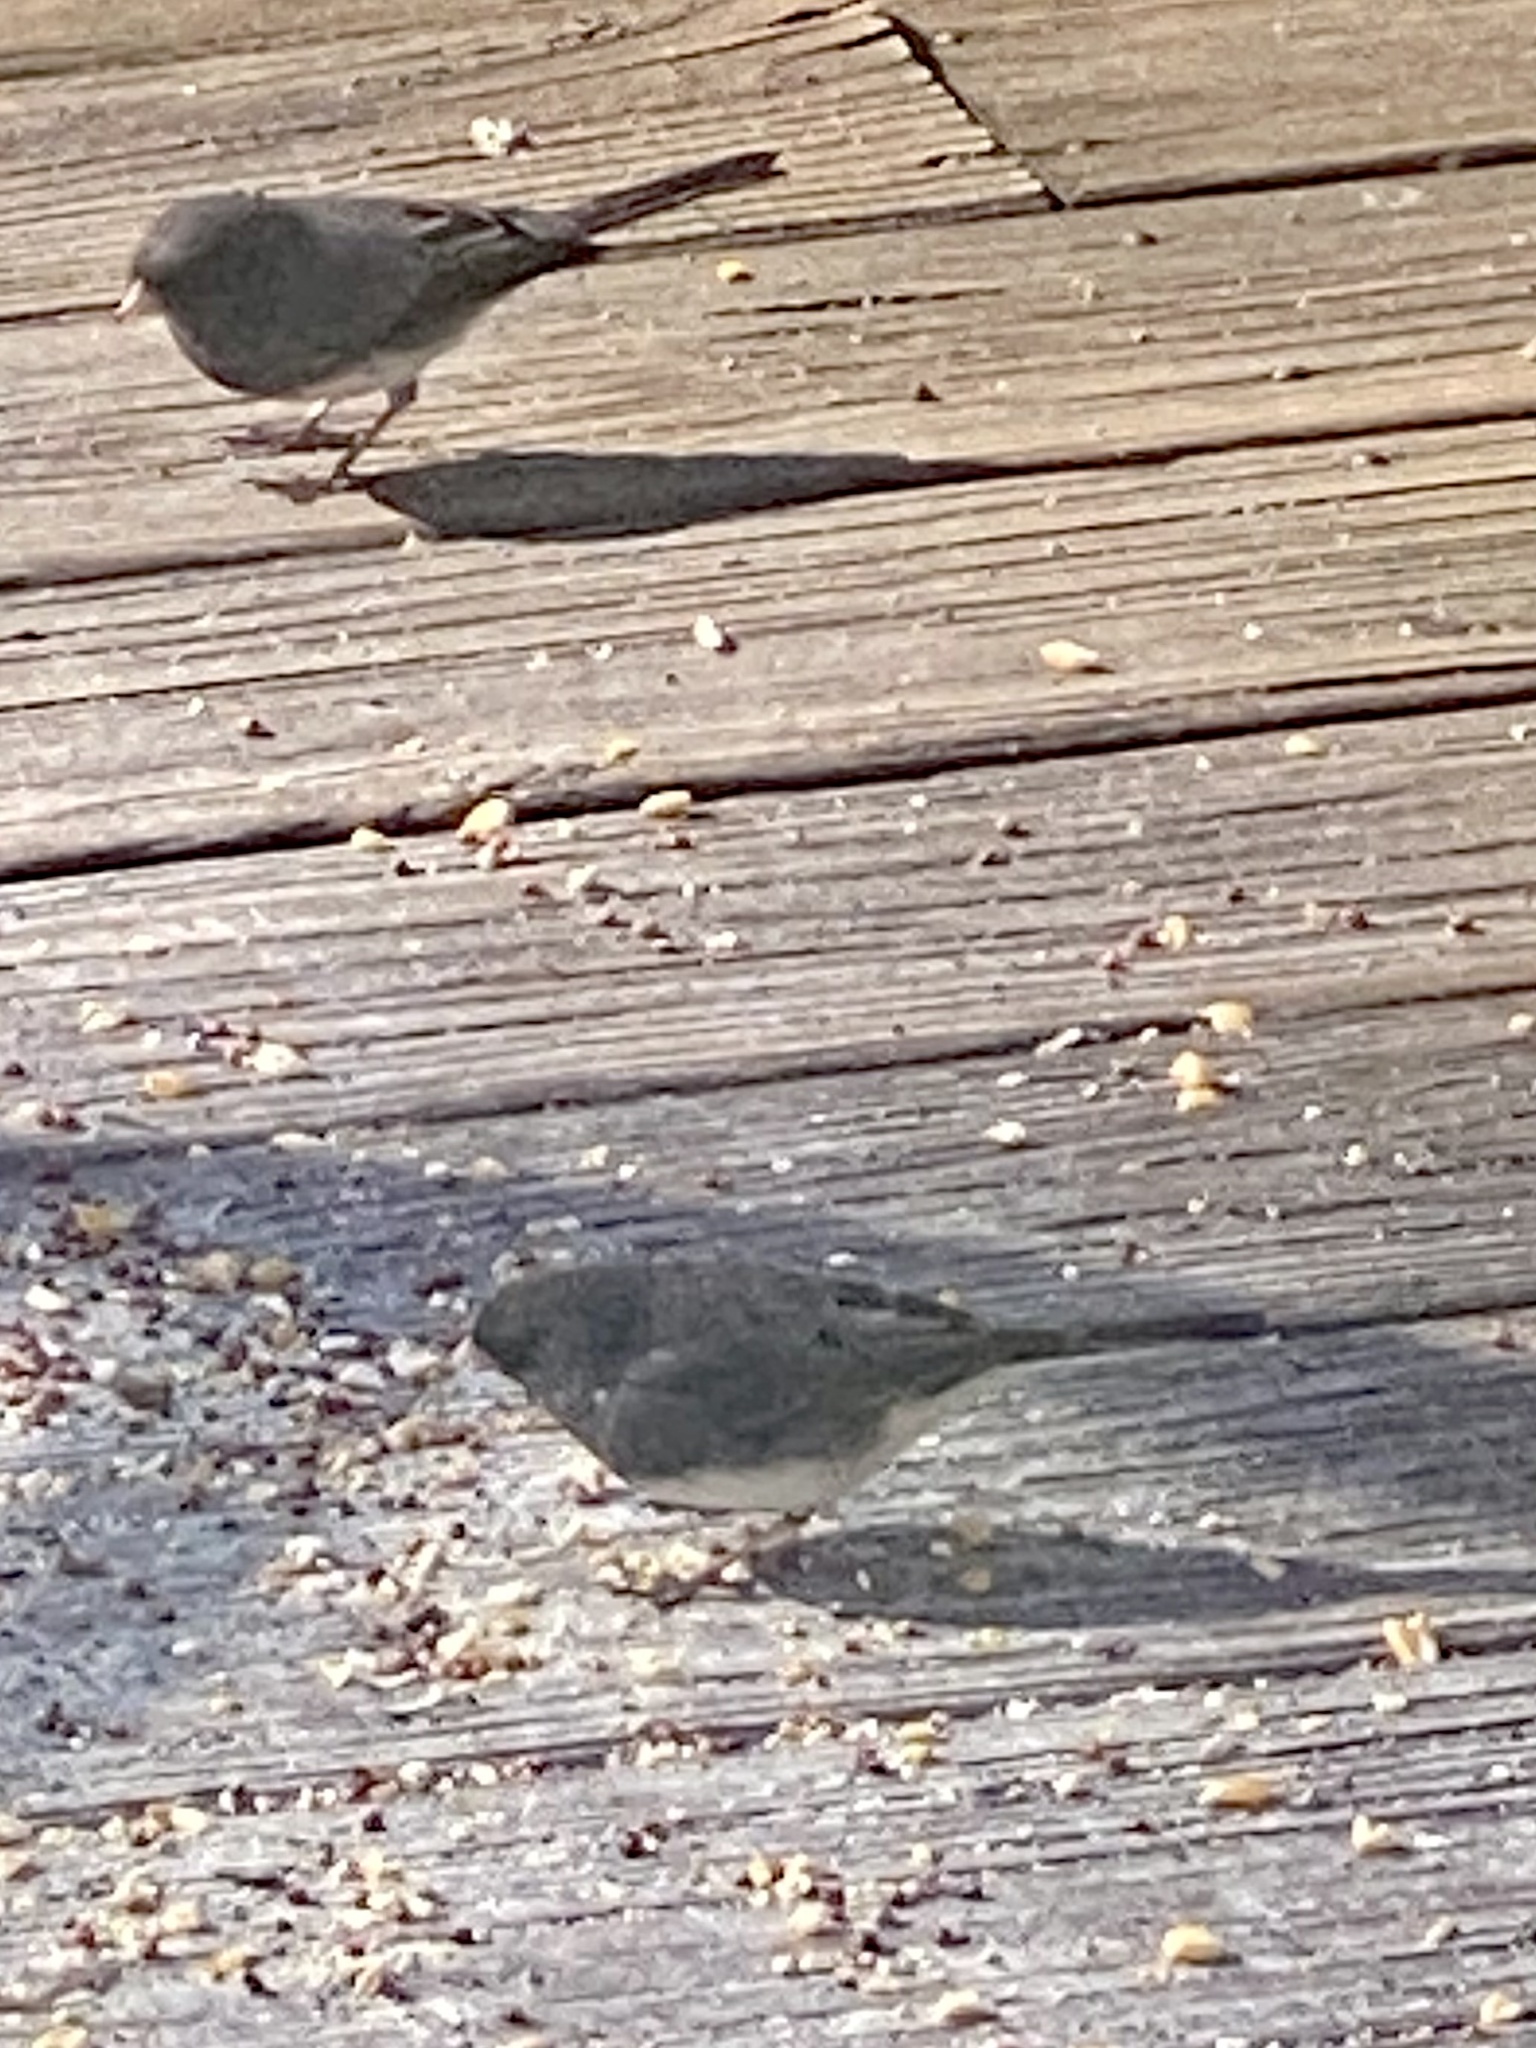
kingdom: Animalia
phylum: Chordata
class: Aves
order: Passeriformes
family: Passerellidae
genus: Junco
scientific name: Junco hyemalis
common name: Dark-eyed junco
